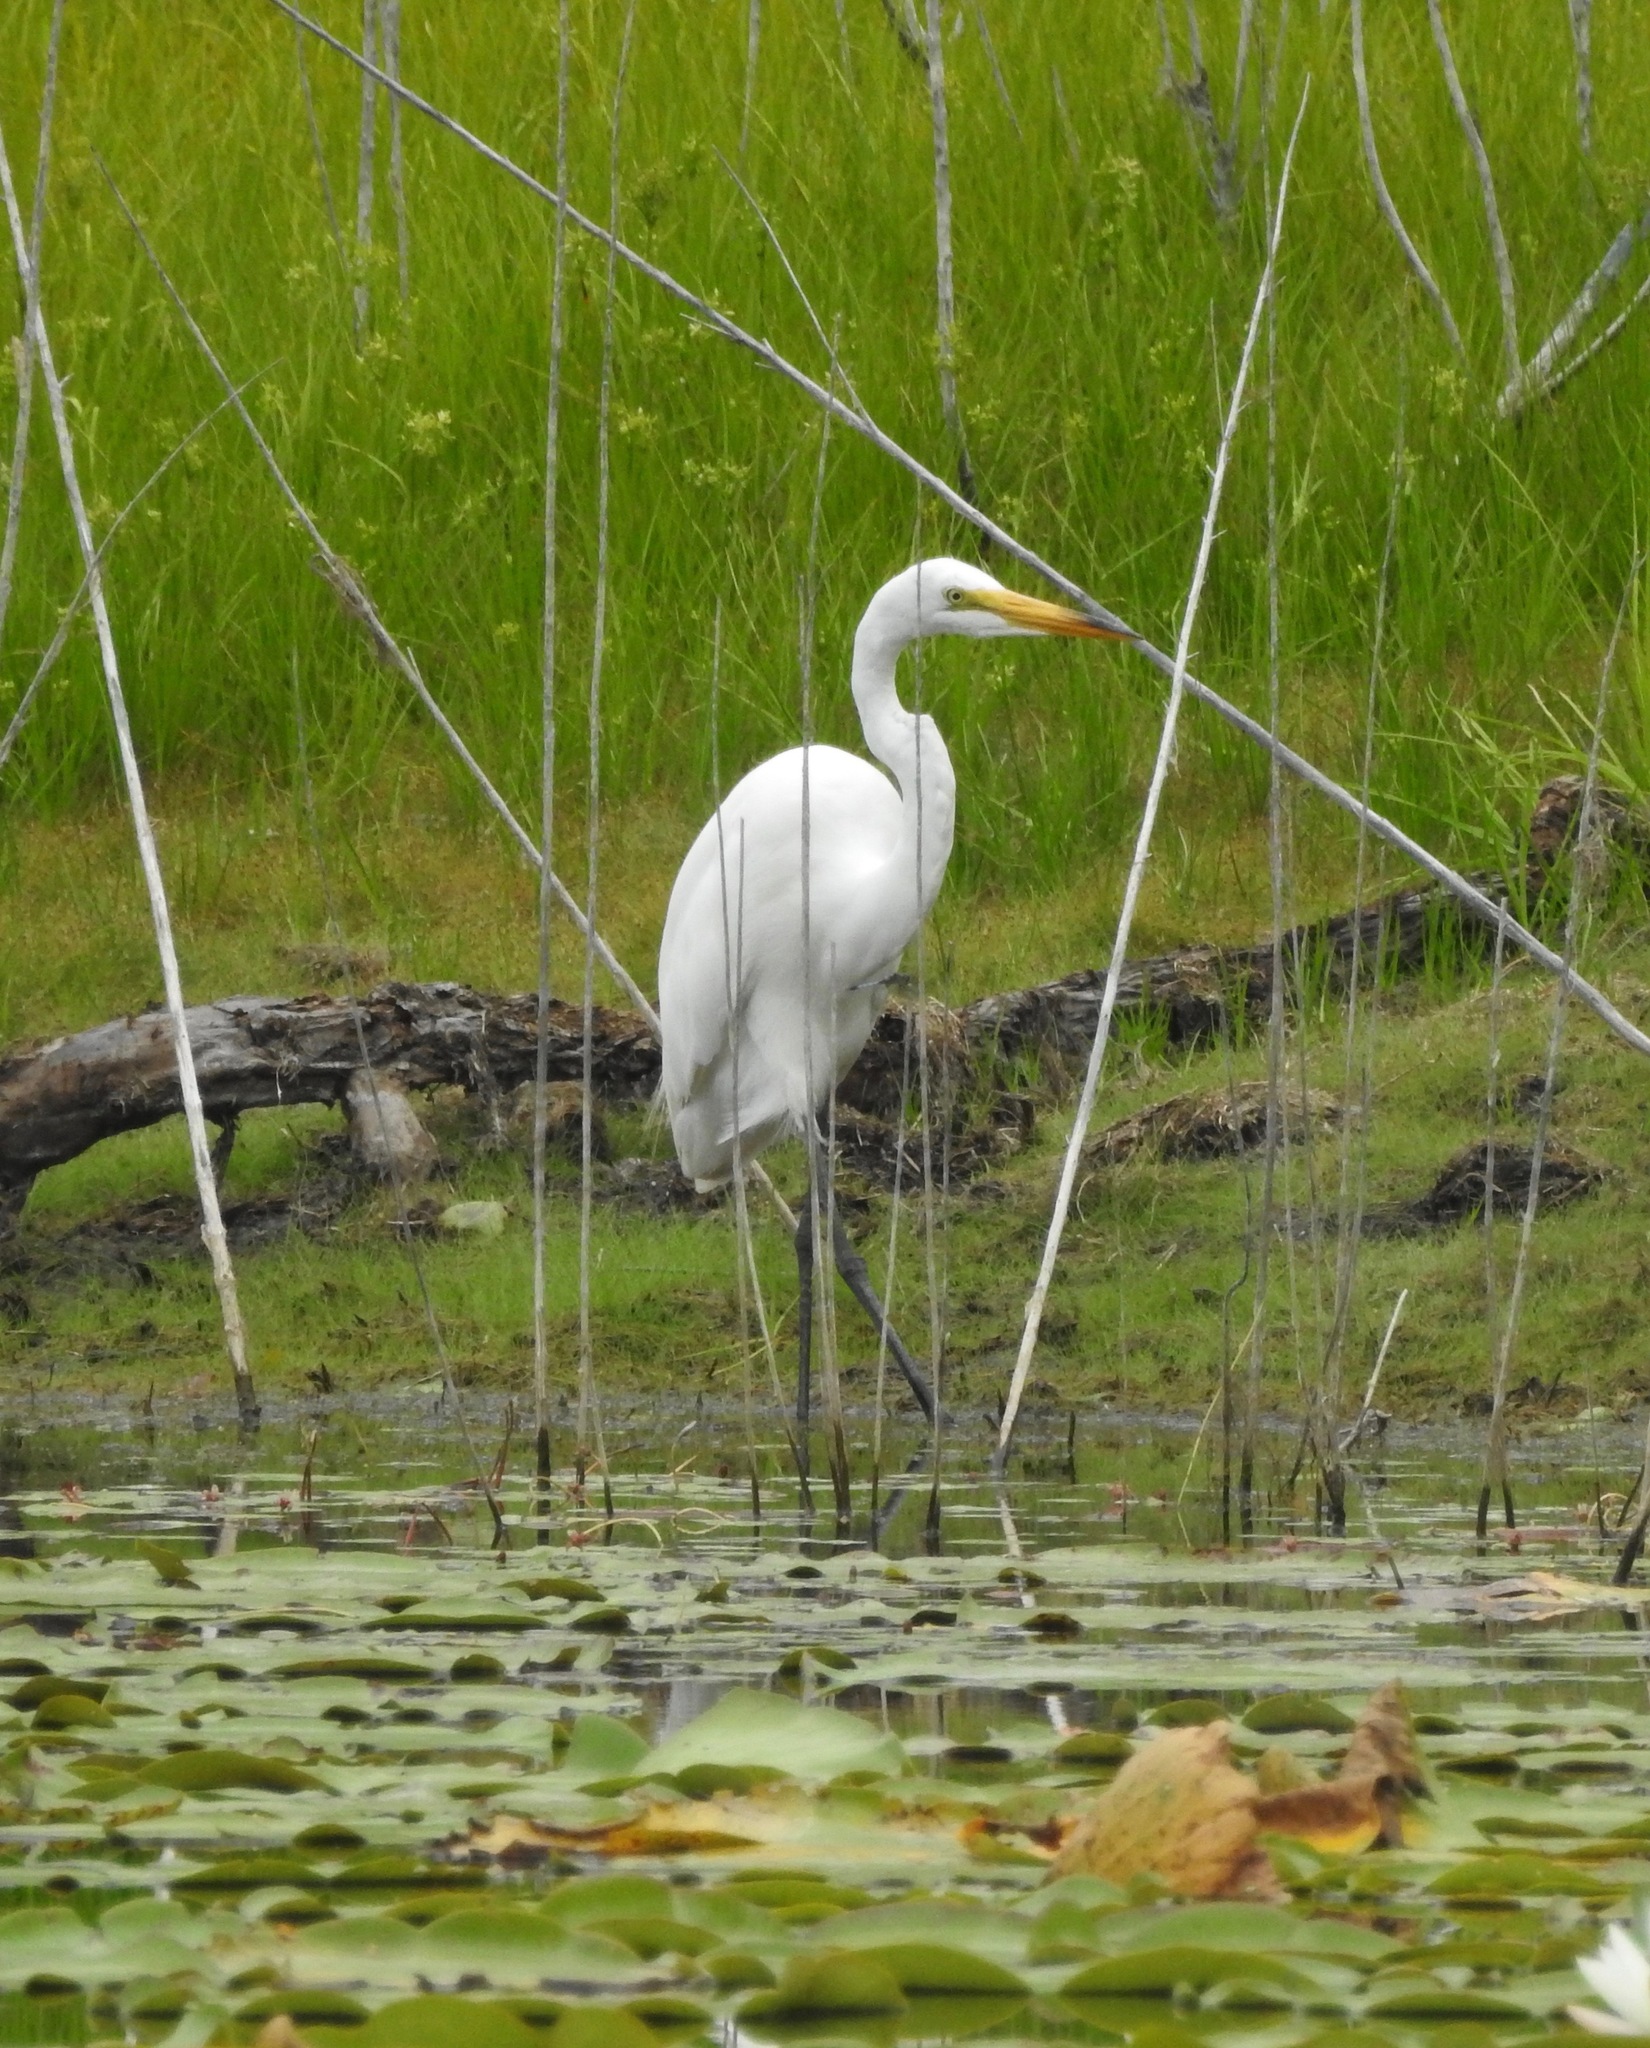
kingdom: Animalia
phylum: Chordata
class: Aves
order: Pelecaniformes
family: Ardeidae
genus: Ardea
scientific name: Ardea alba
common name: Great egret
